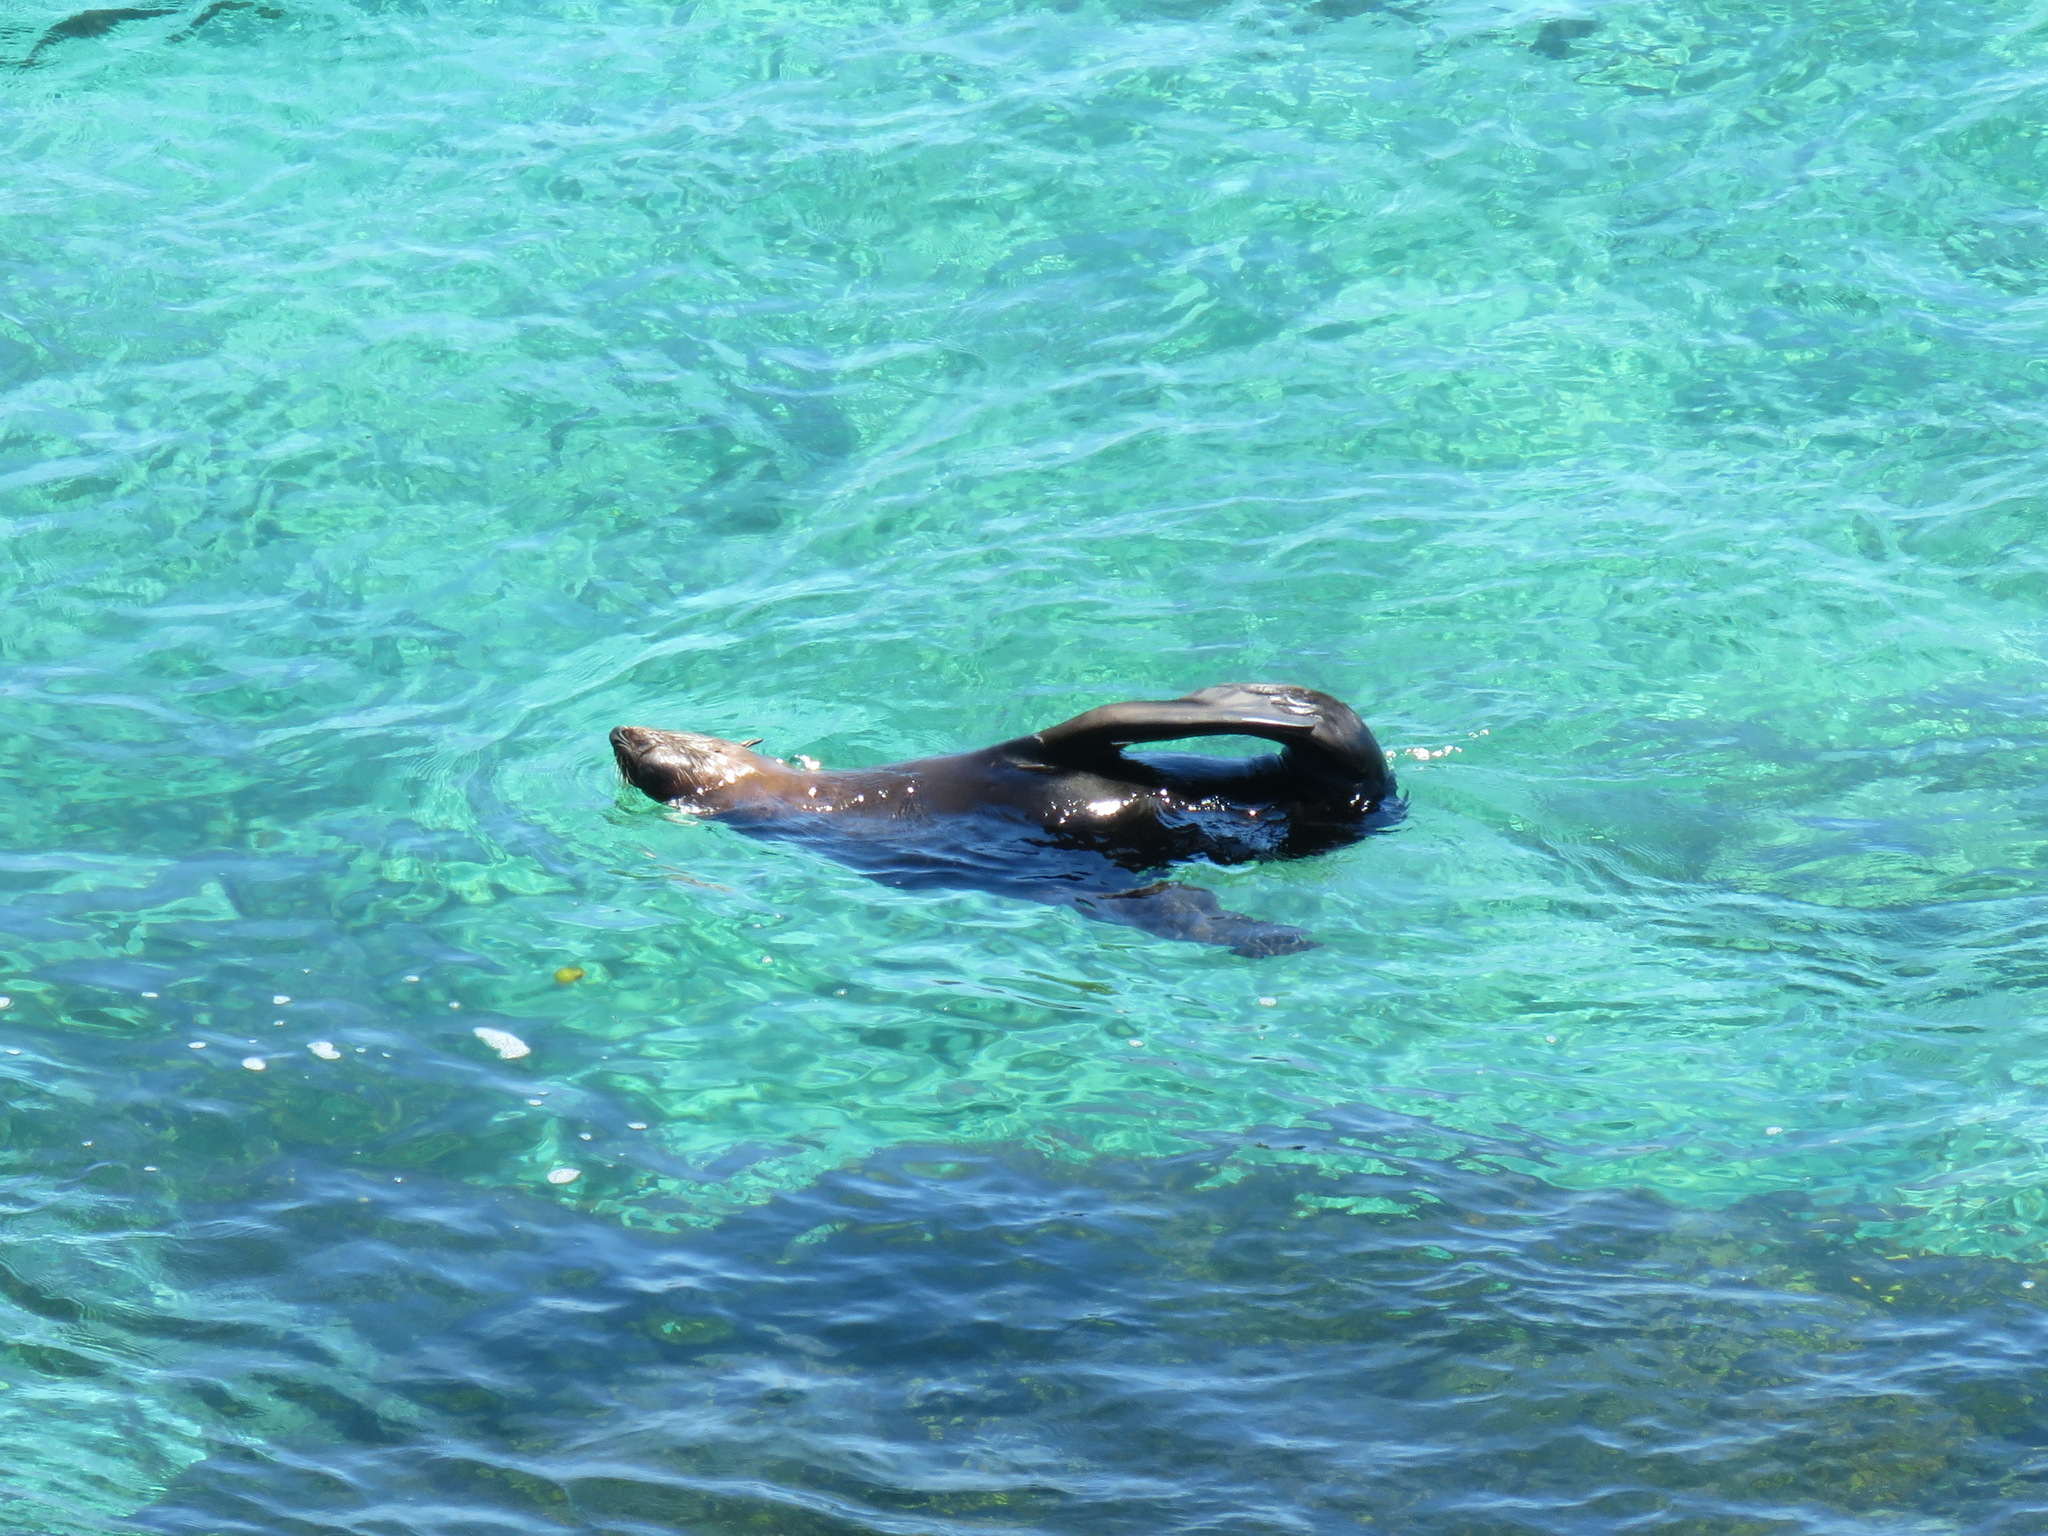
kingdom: Animalia
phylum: Chordata
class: Mammalia
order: Carnivora
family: Otariidae
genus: Arctocephalus
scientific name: Arctocephalus forsteri
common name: New zealand fur seal
